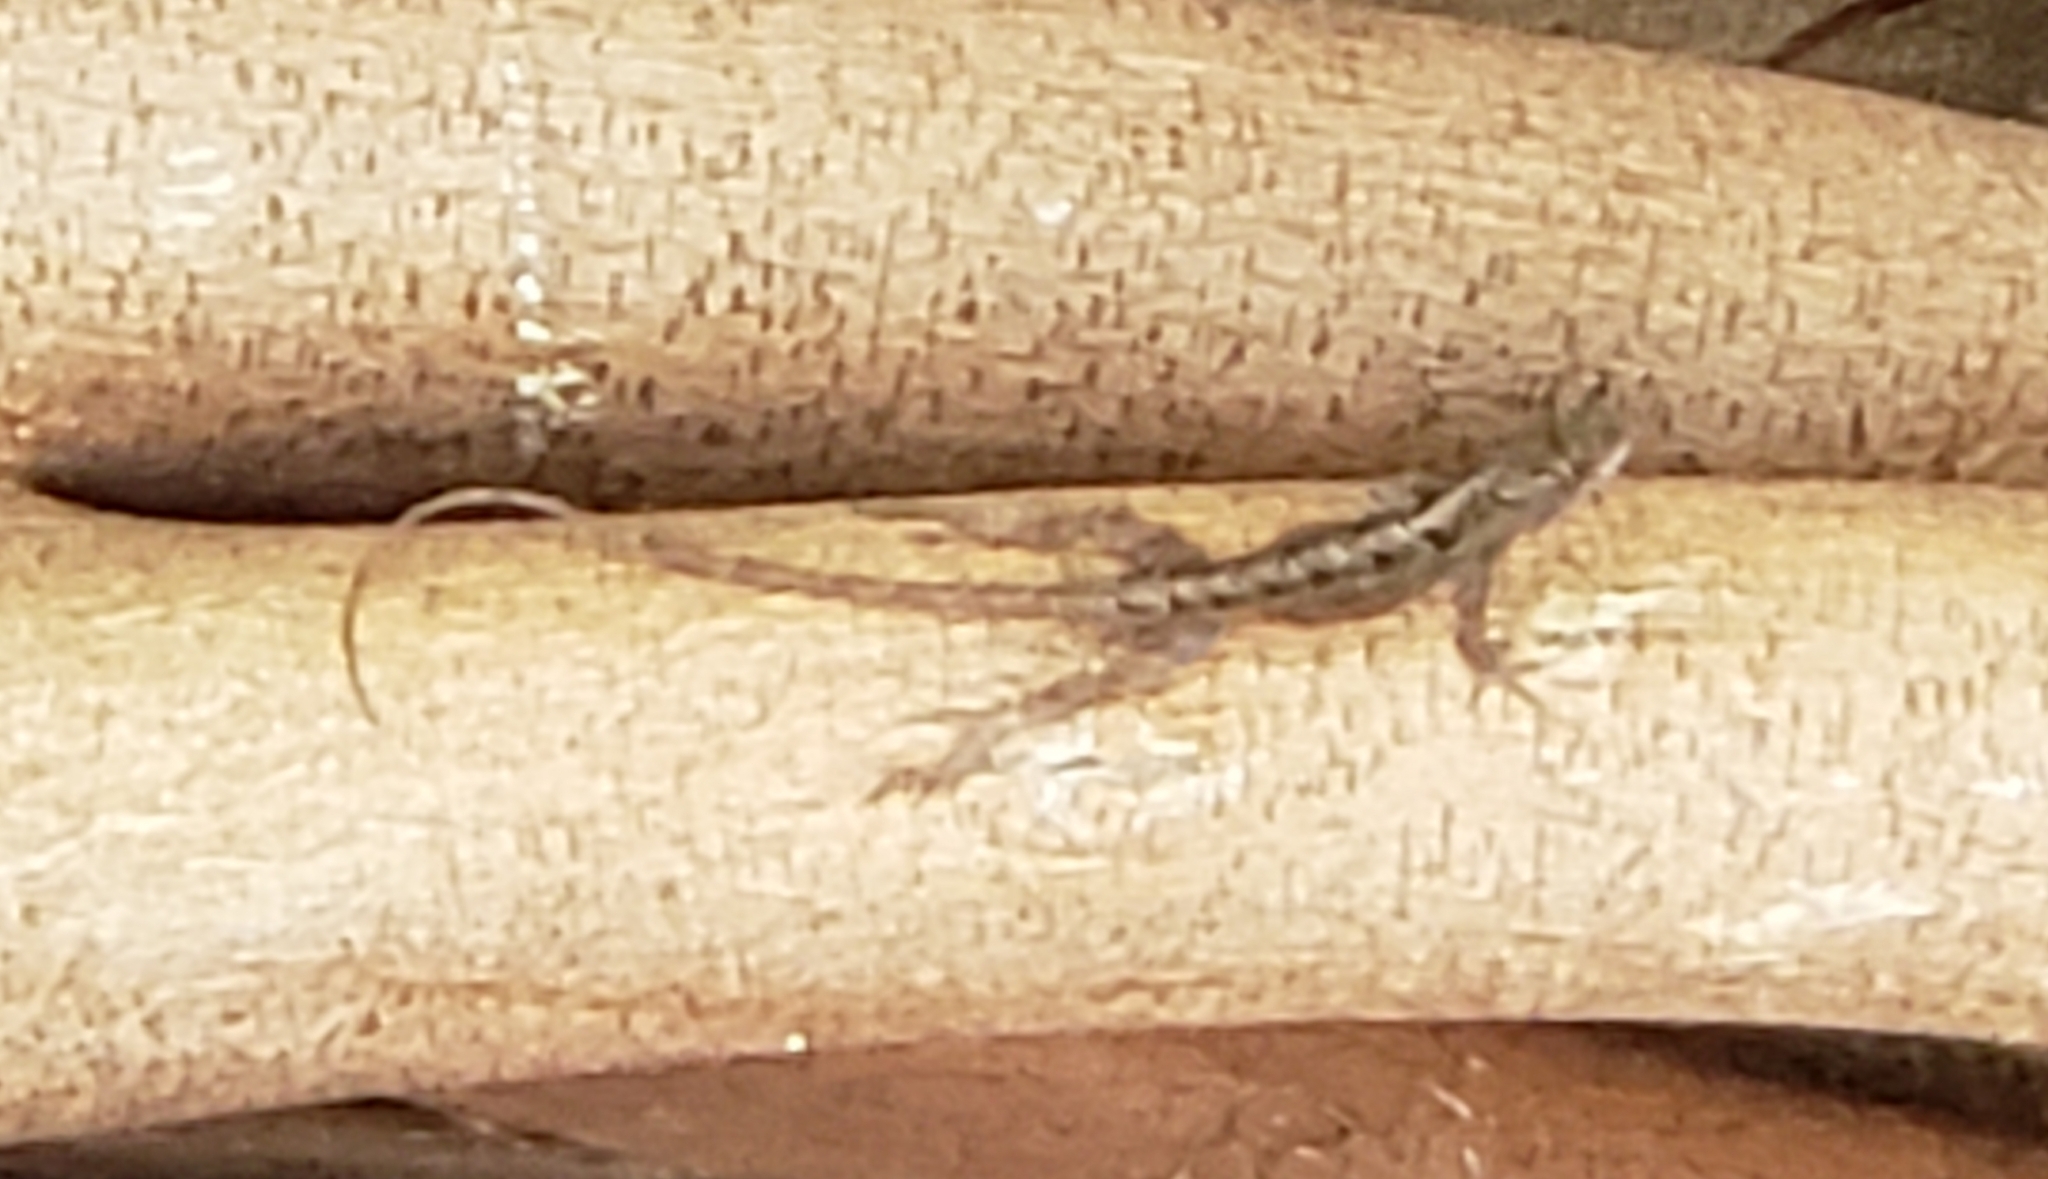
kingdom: Animalia
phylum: Chordata
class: Squamata
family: Dactyloidae
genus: Anolis
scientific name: Anolis sagrei
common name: Brown anole
